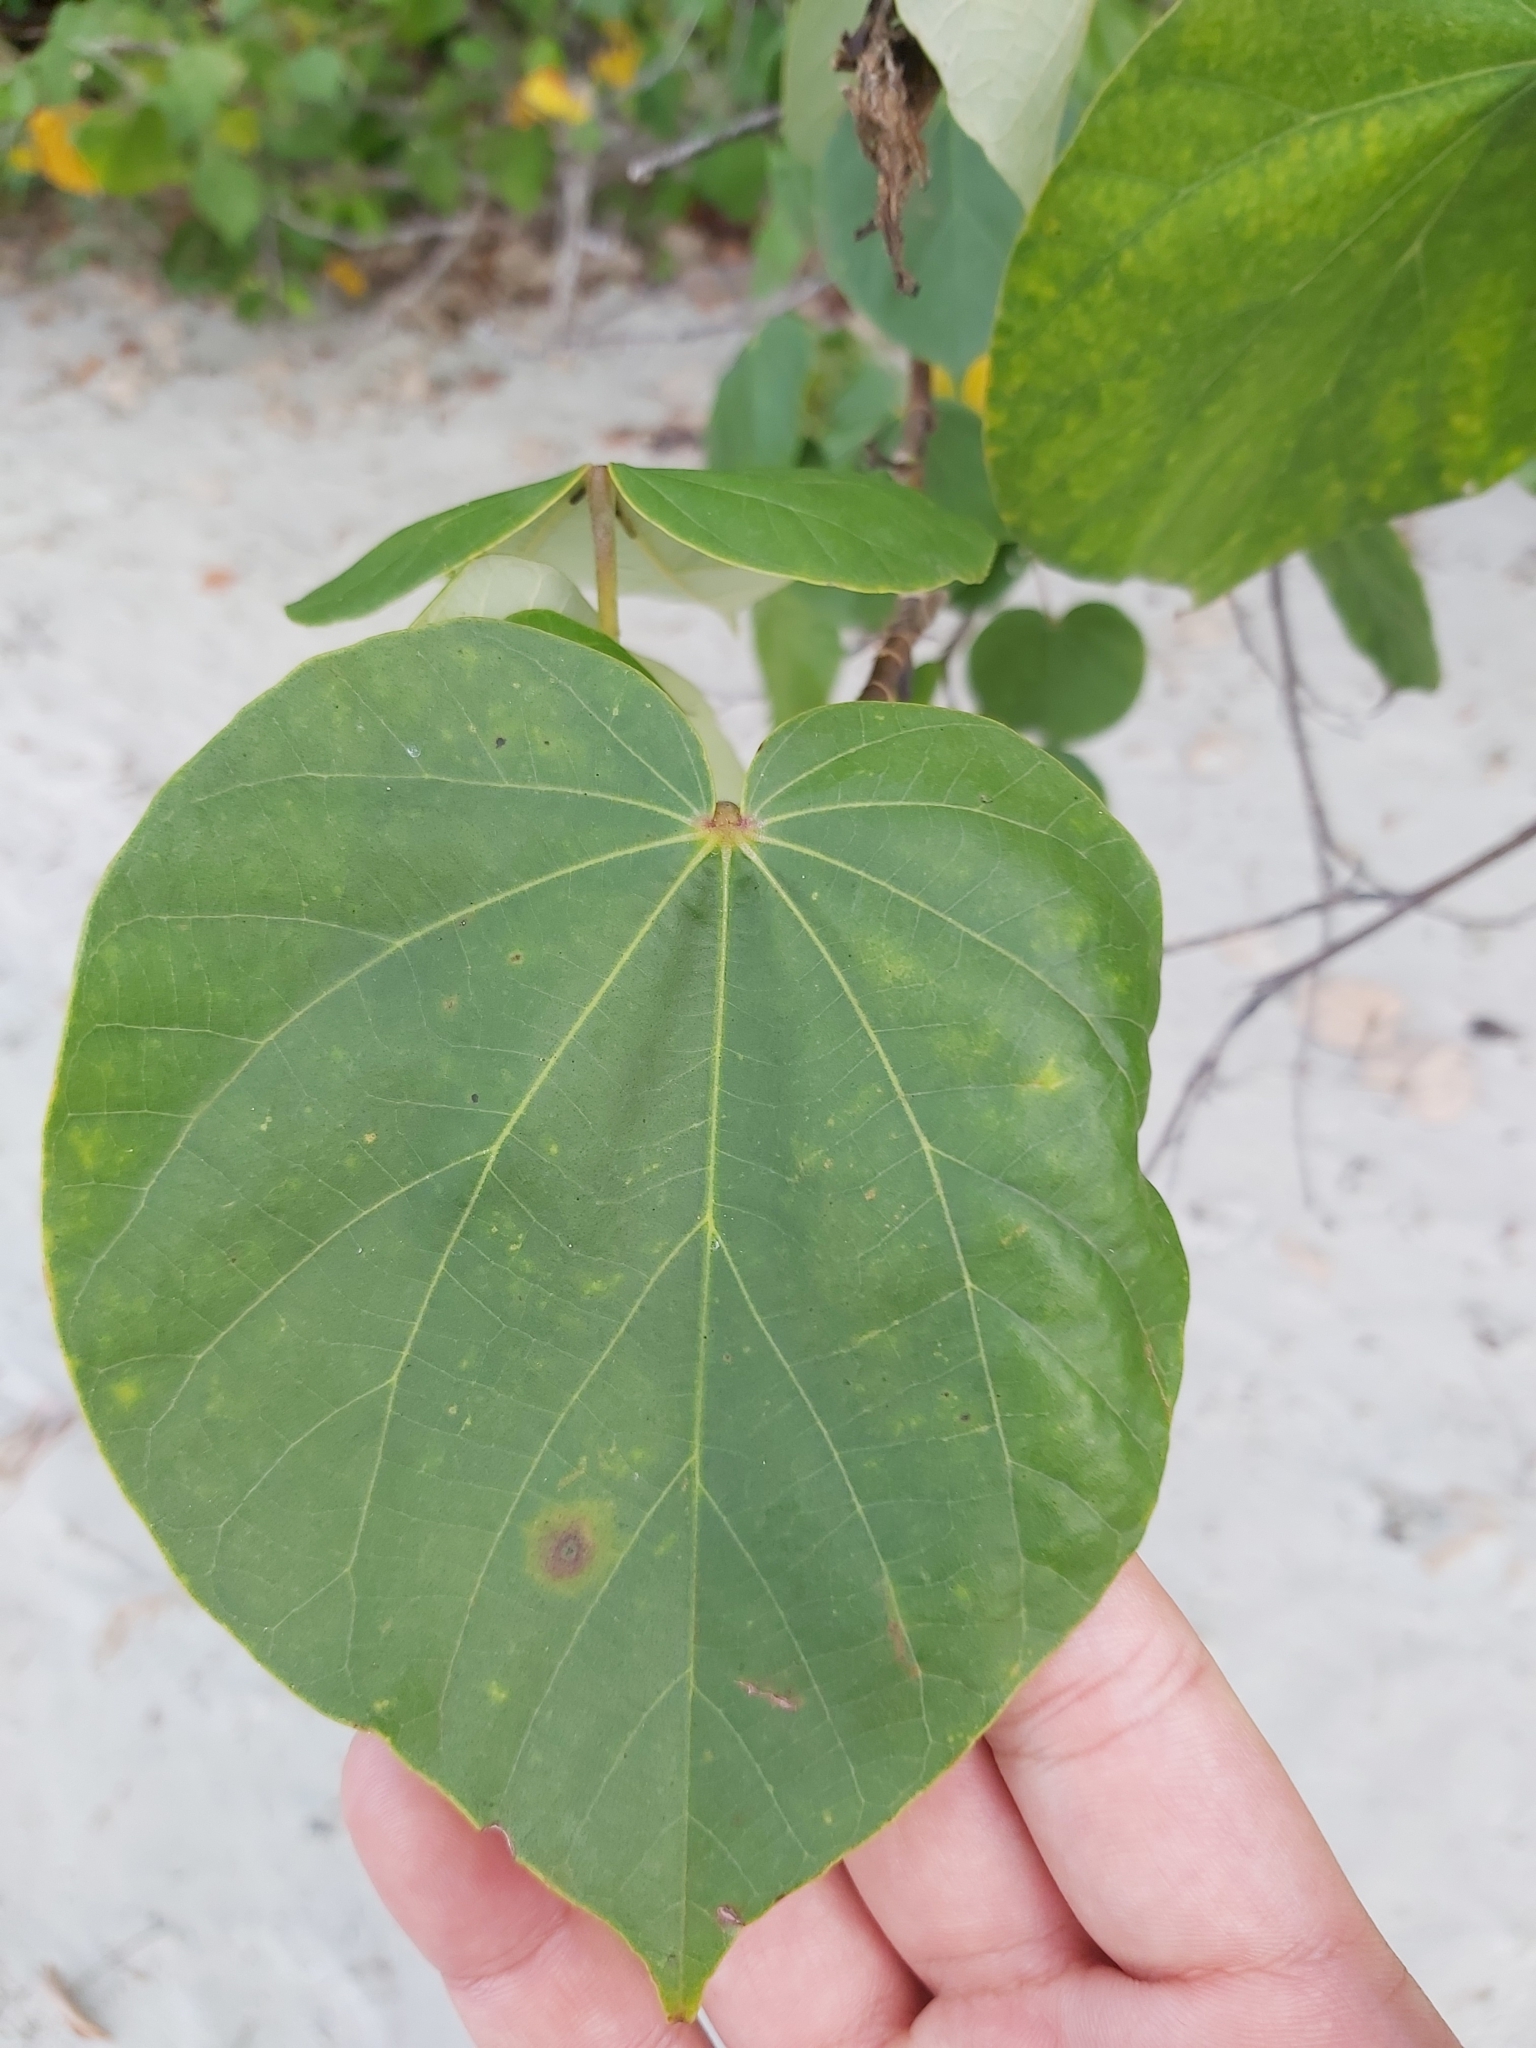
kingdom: Plantae
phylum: Tracheophyta
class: Magnoliopsida
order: Malvales
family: Malvaceae
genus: Talipariti
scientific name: Talipariti tiliaceum
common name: Sea hibiscus
